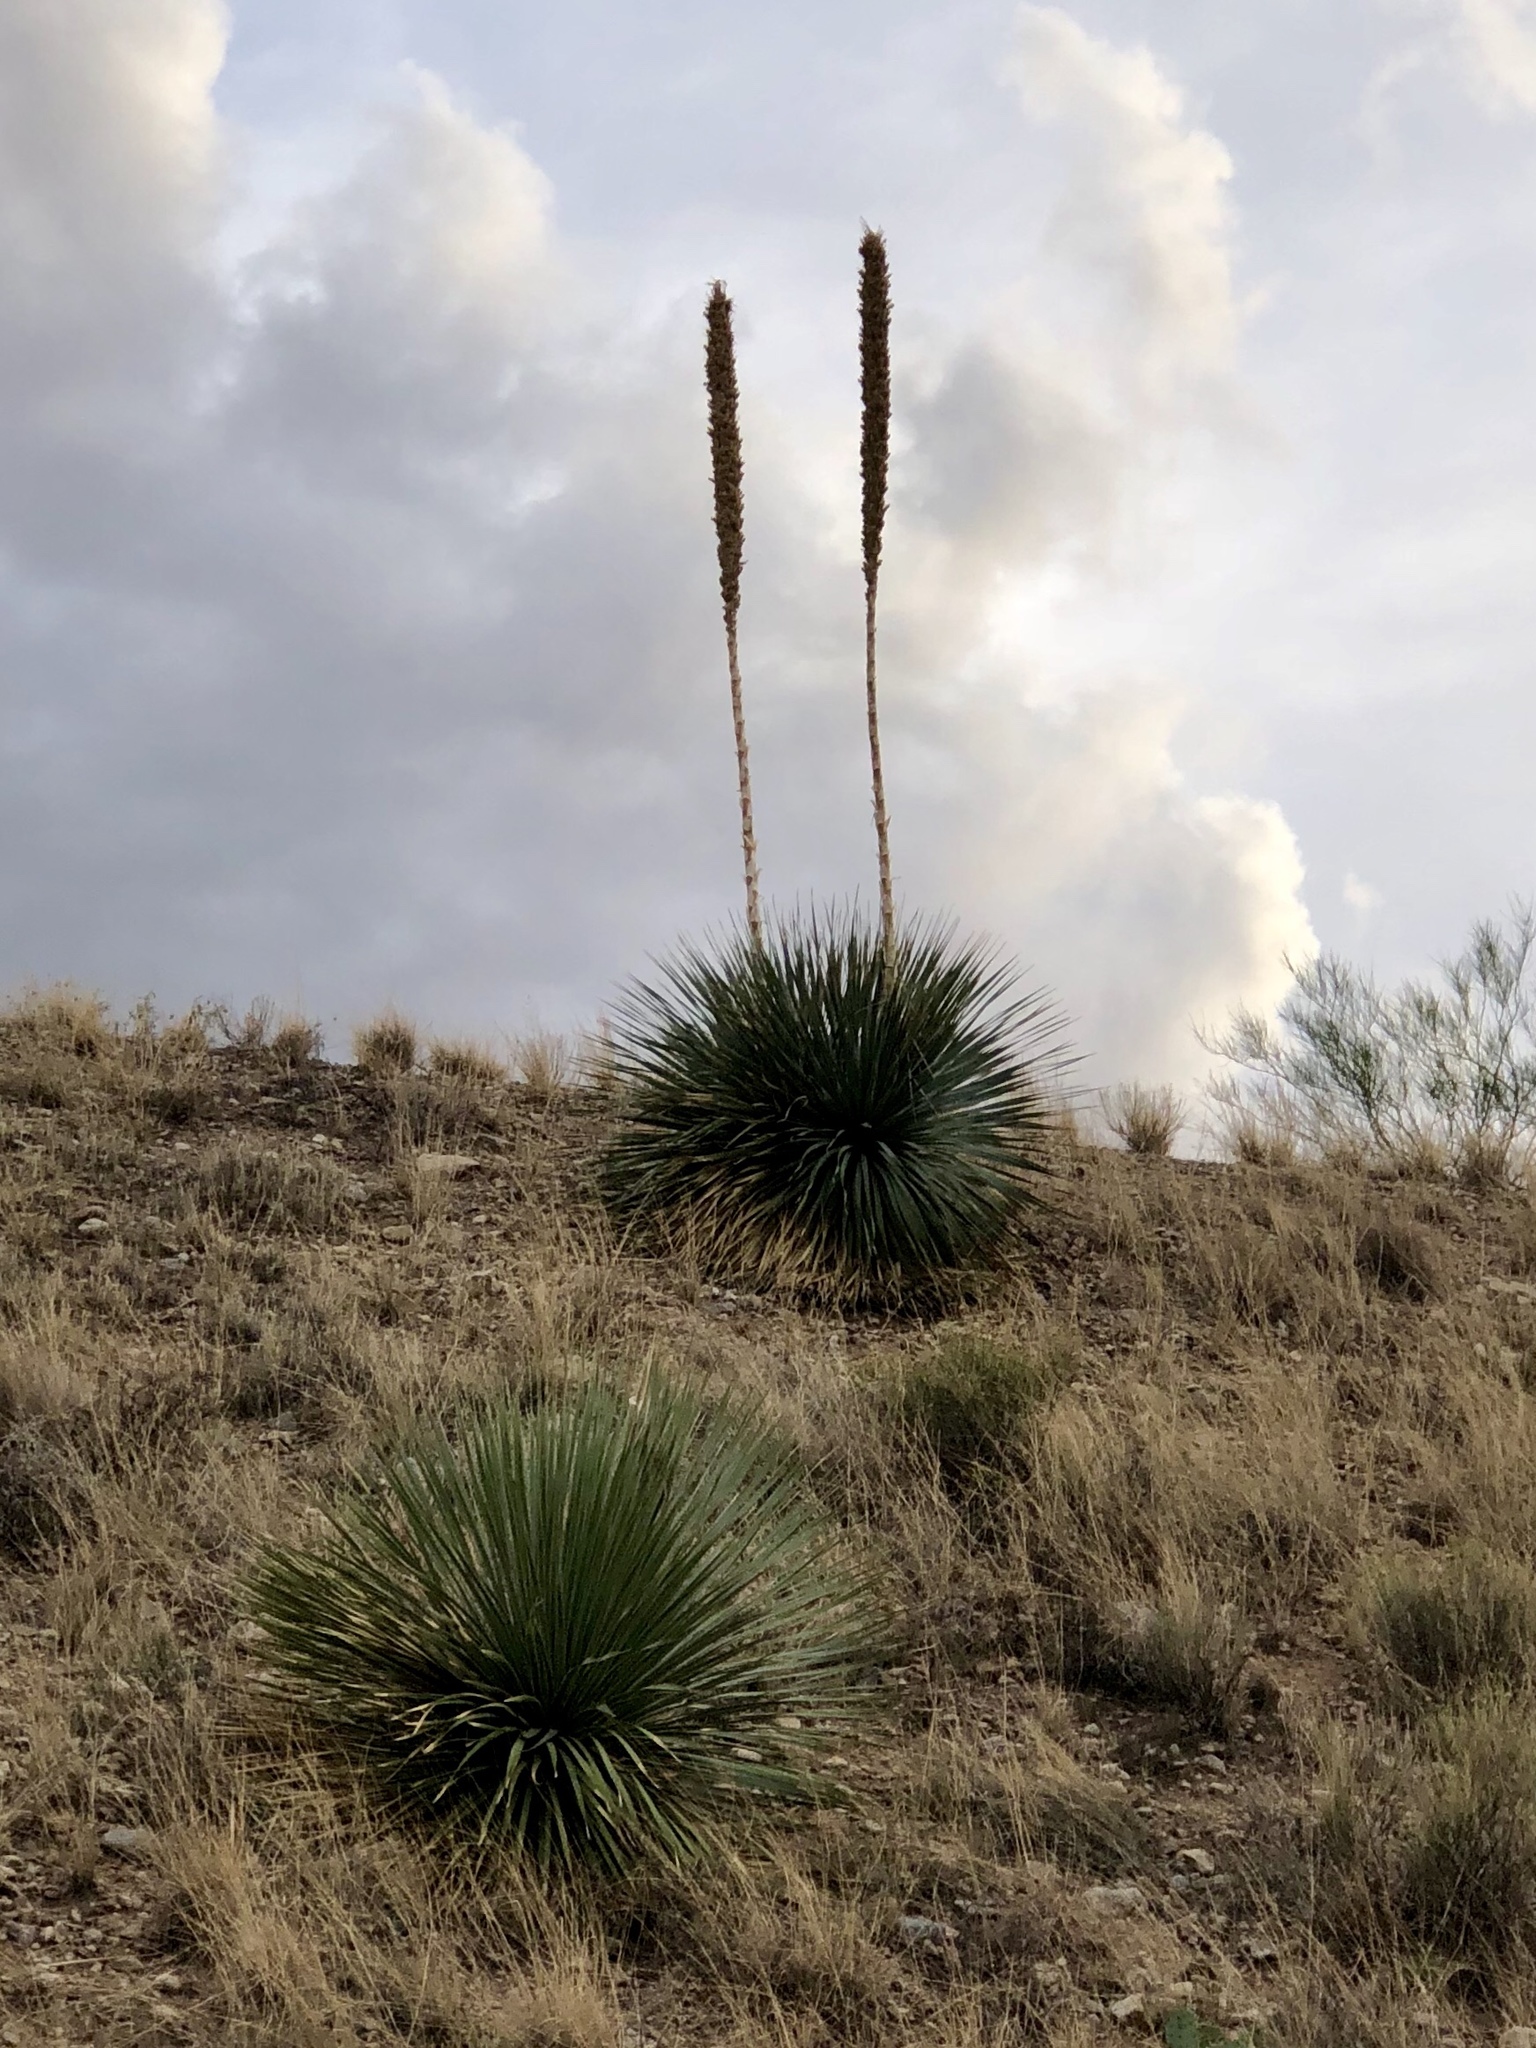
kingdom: Plantae
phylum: Tracheophyta
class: Liliopsida
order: Asparagales
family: Asparagaceae
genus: Dasylirion
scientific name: Dasylirion wheeleri
